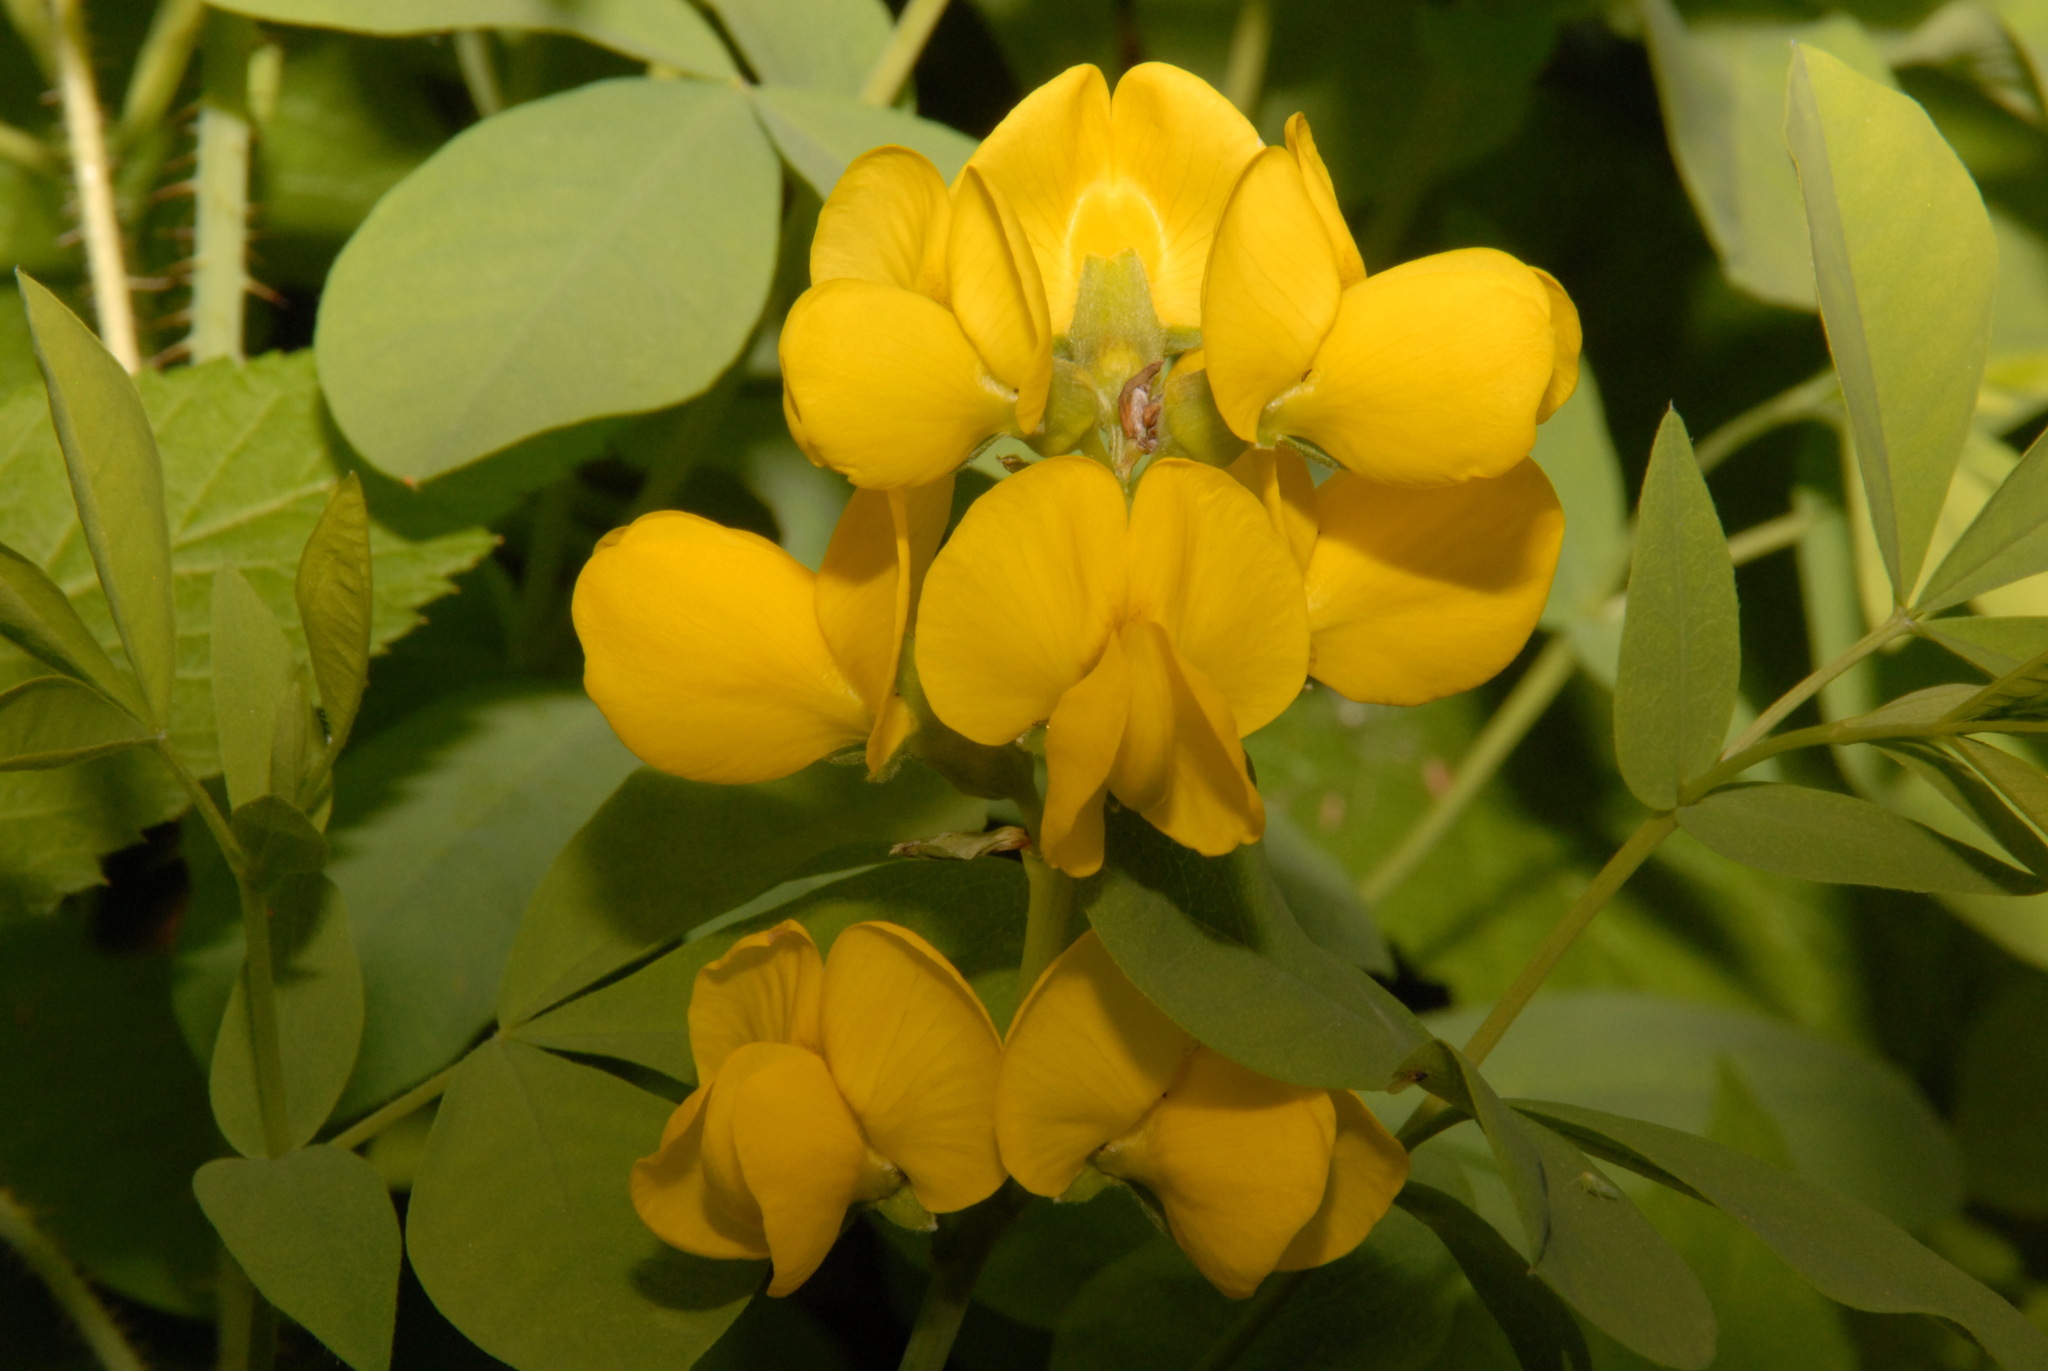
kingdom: Plantae
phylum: Tracheophyta
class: Magnoliopsida
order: Fabales
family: Fabaceae
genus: Thermopsis
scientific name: Thermopsis rhombifolia
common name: Circle-pod-pea
